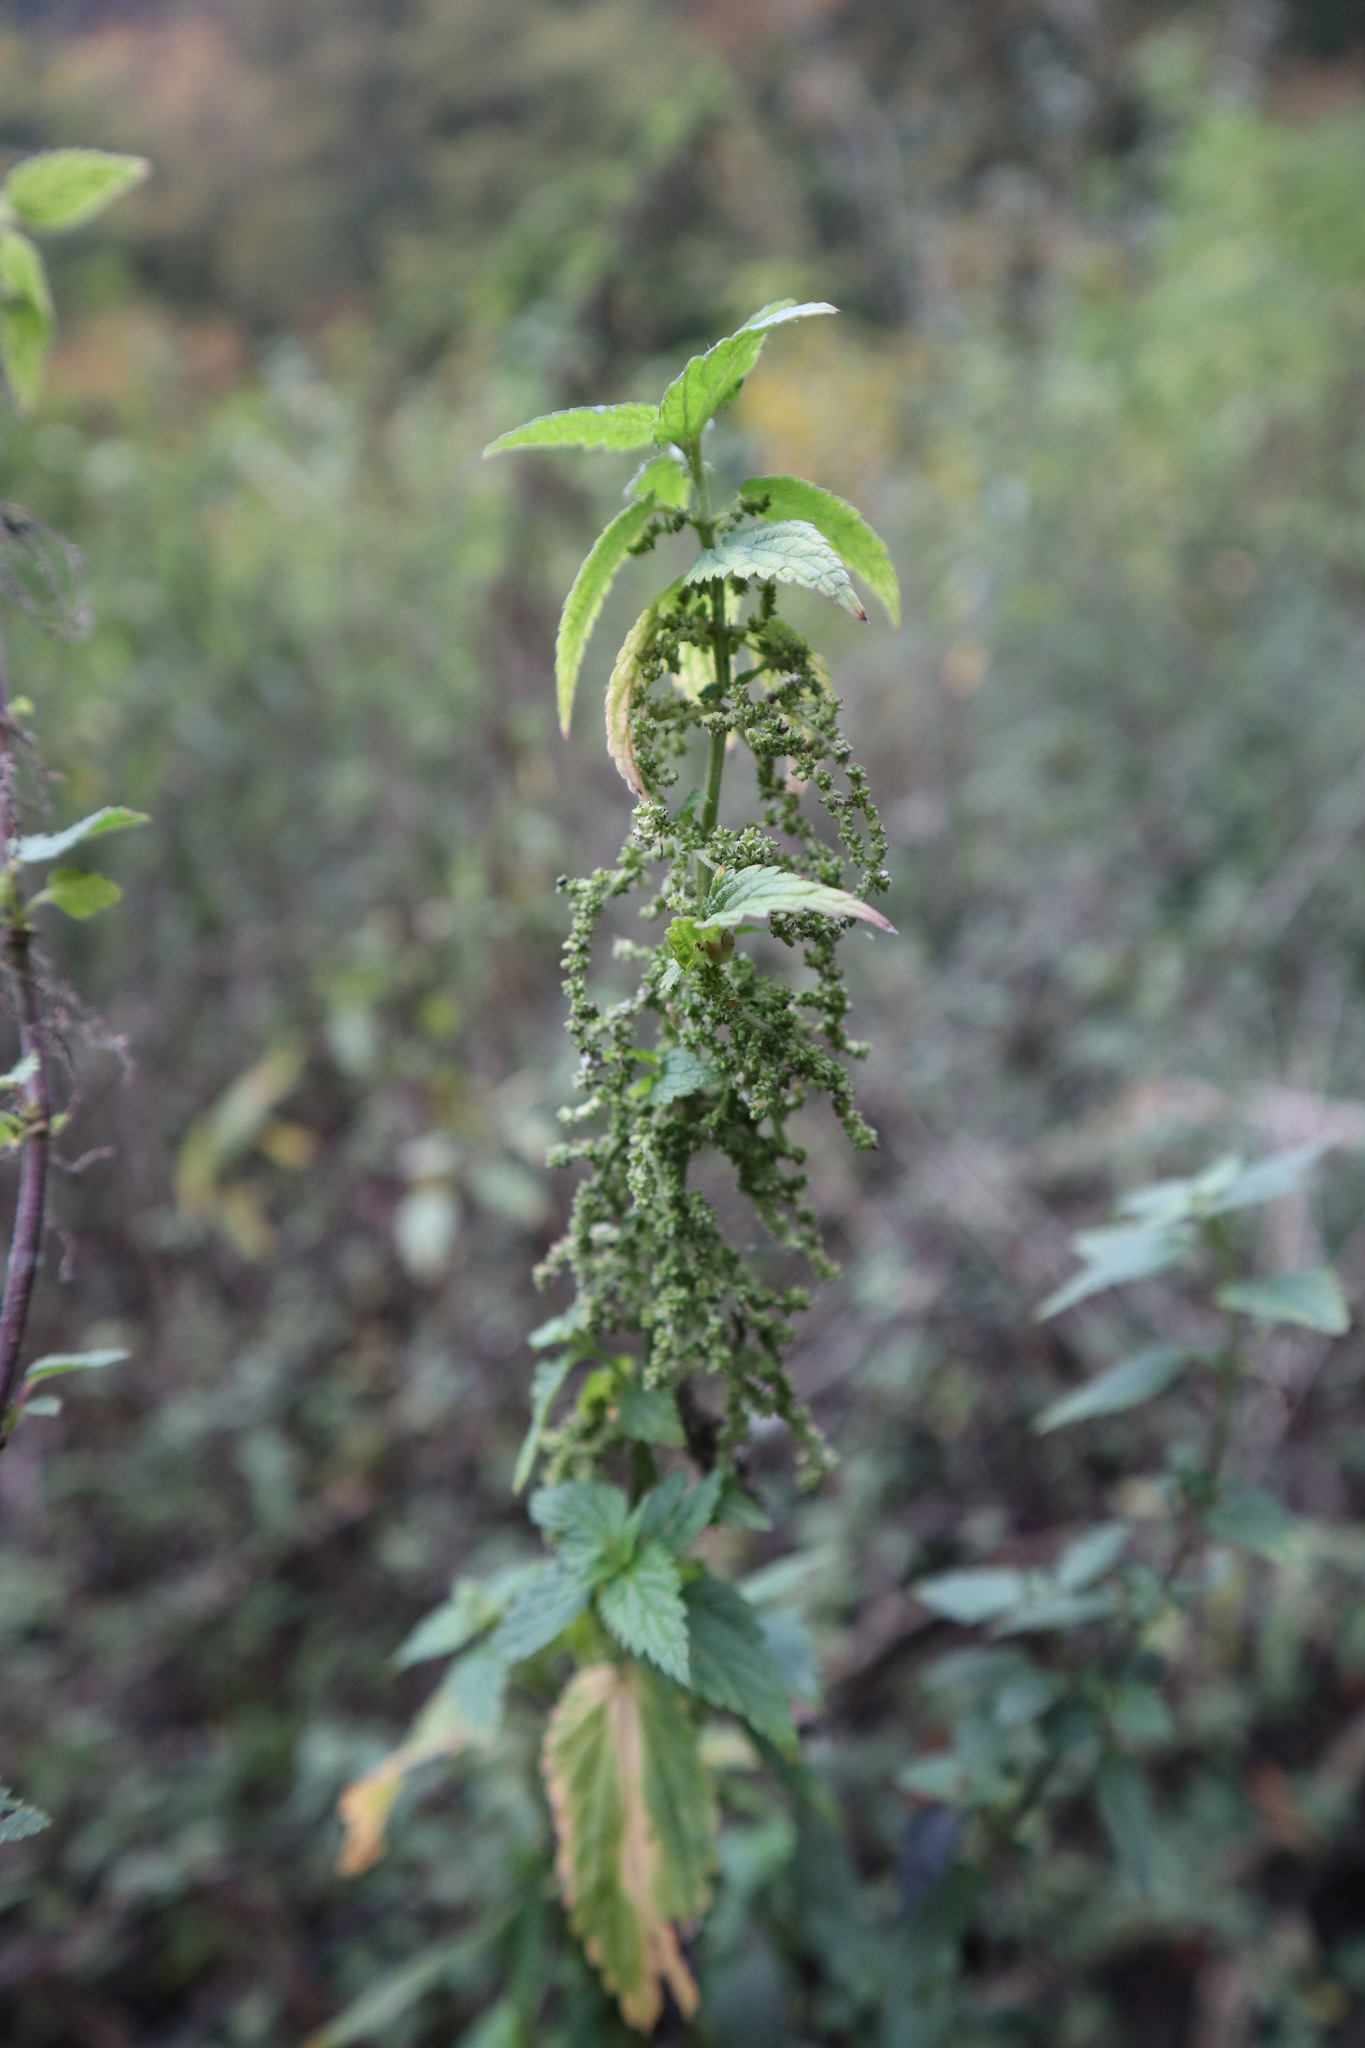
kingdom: Plantae
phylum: Tracheophyta
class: Magnoliopsida
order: Rosales
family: Urticaceae
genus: Urtica
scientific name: Urtica dioica
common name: Common nettle
